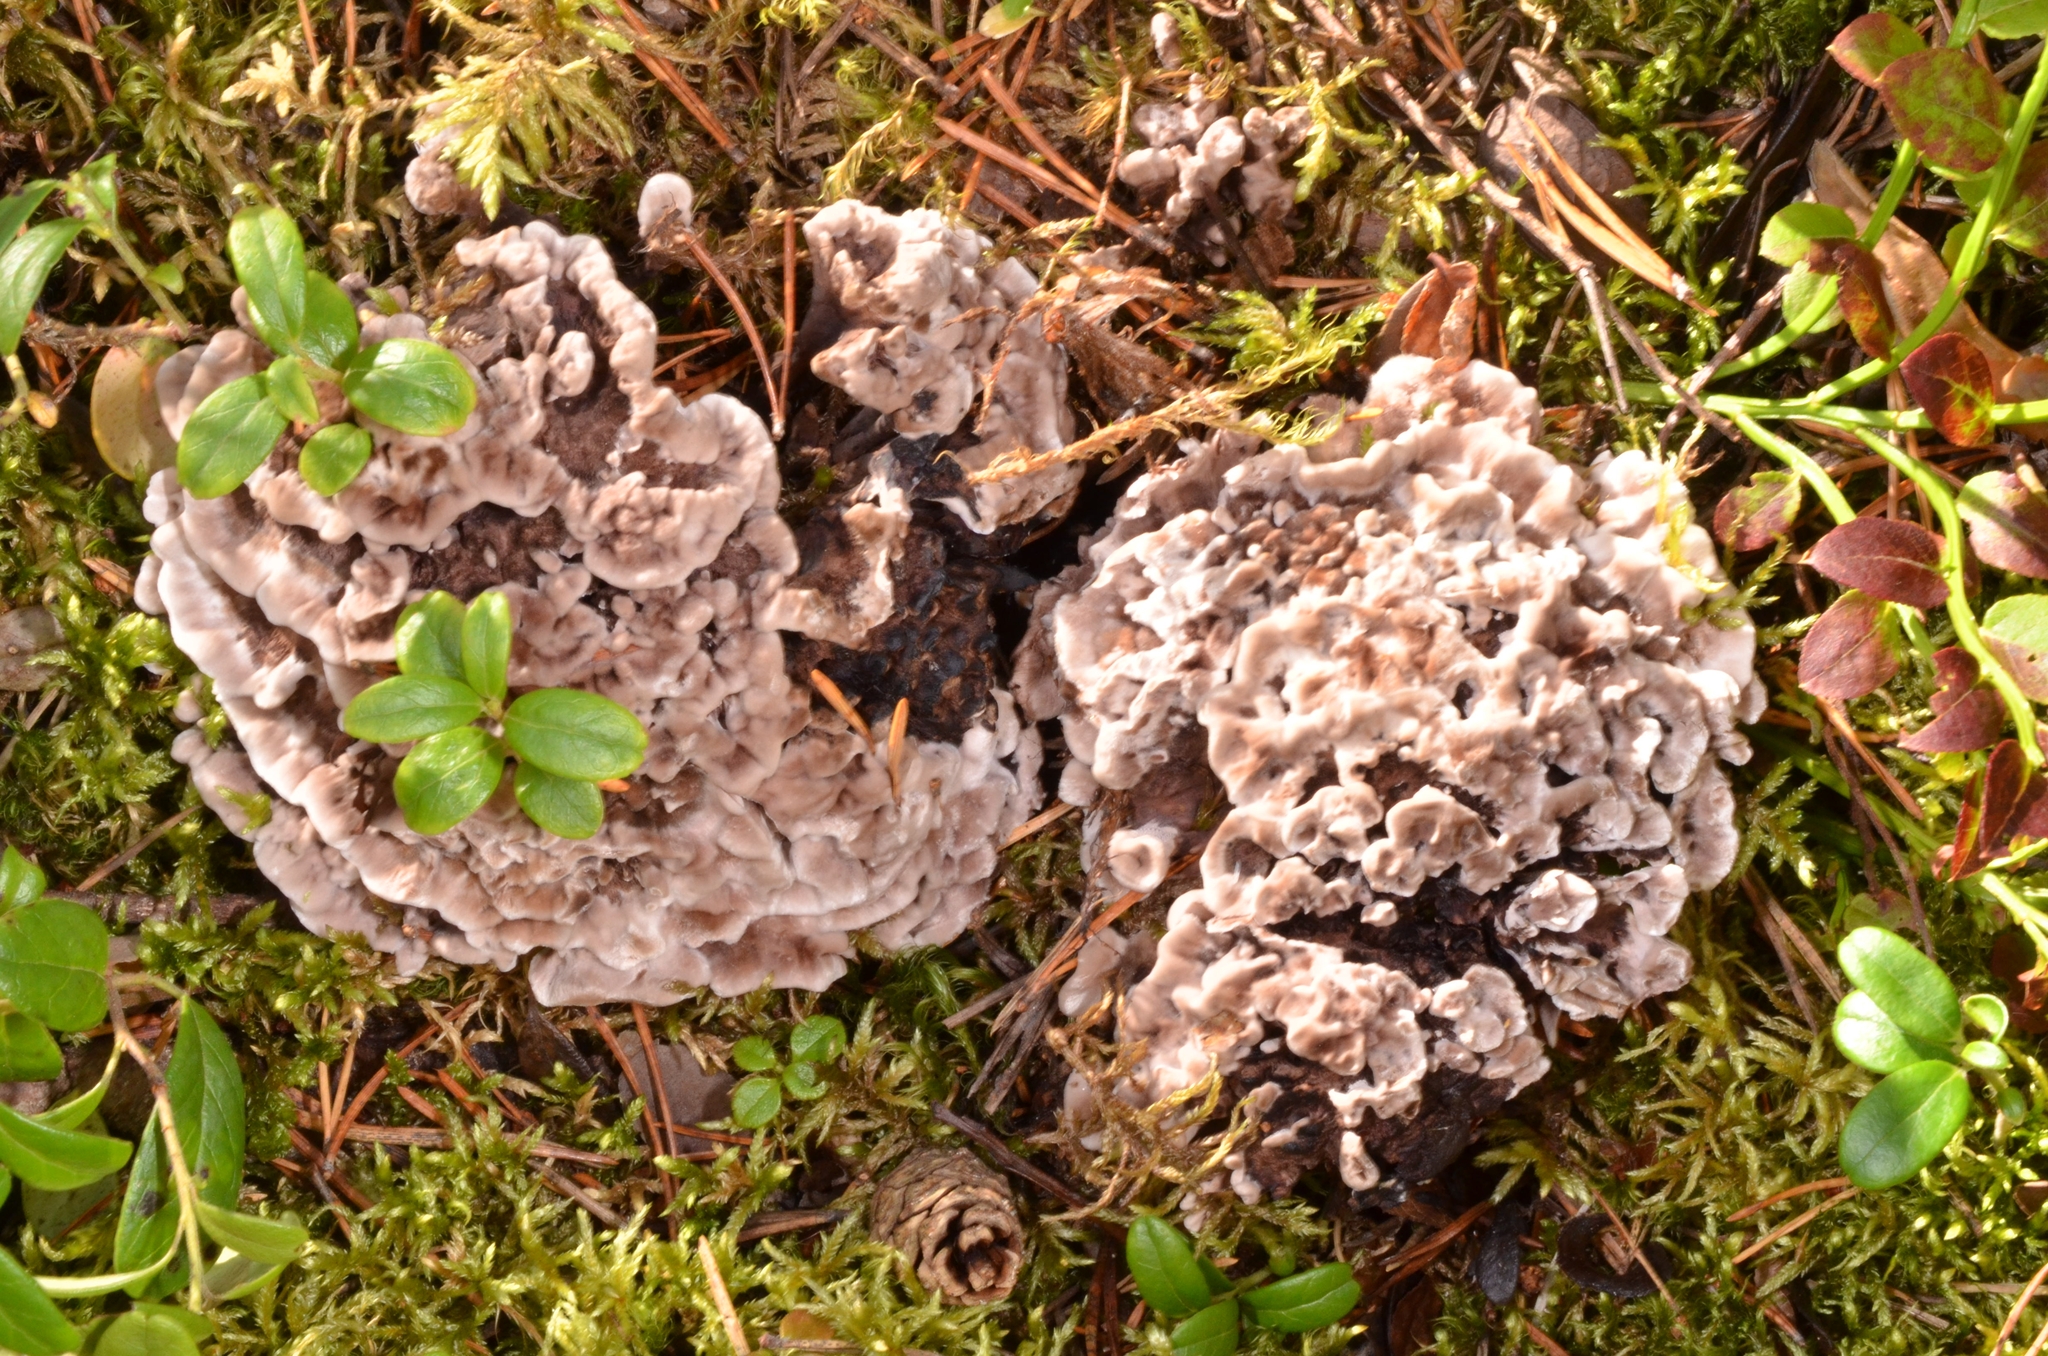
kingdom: Fungi
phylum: Basidiomycota
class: Agaricomycetes
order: Thelephorales
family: Thelephoraceae
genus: Phellodon
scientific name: Phellodon melaleucus
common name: Grey tooth
